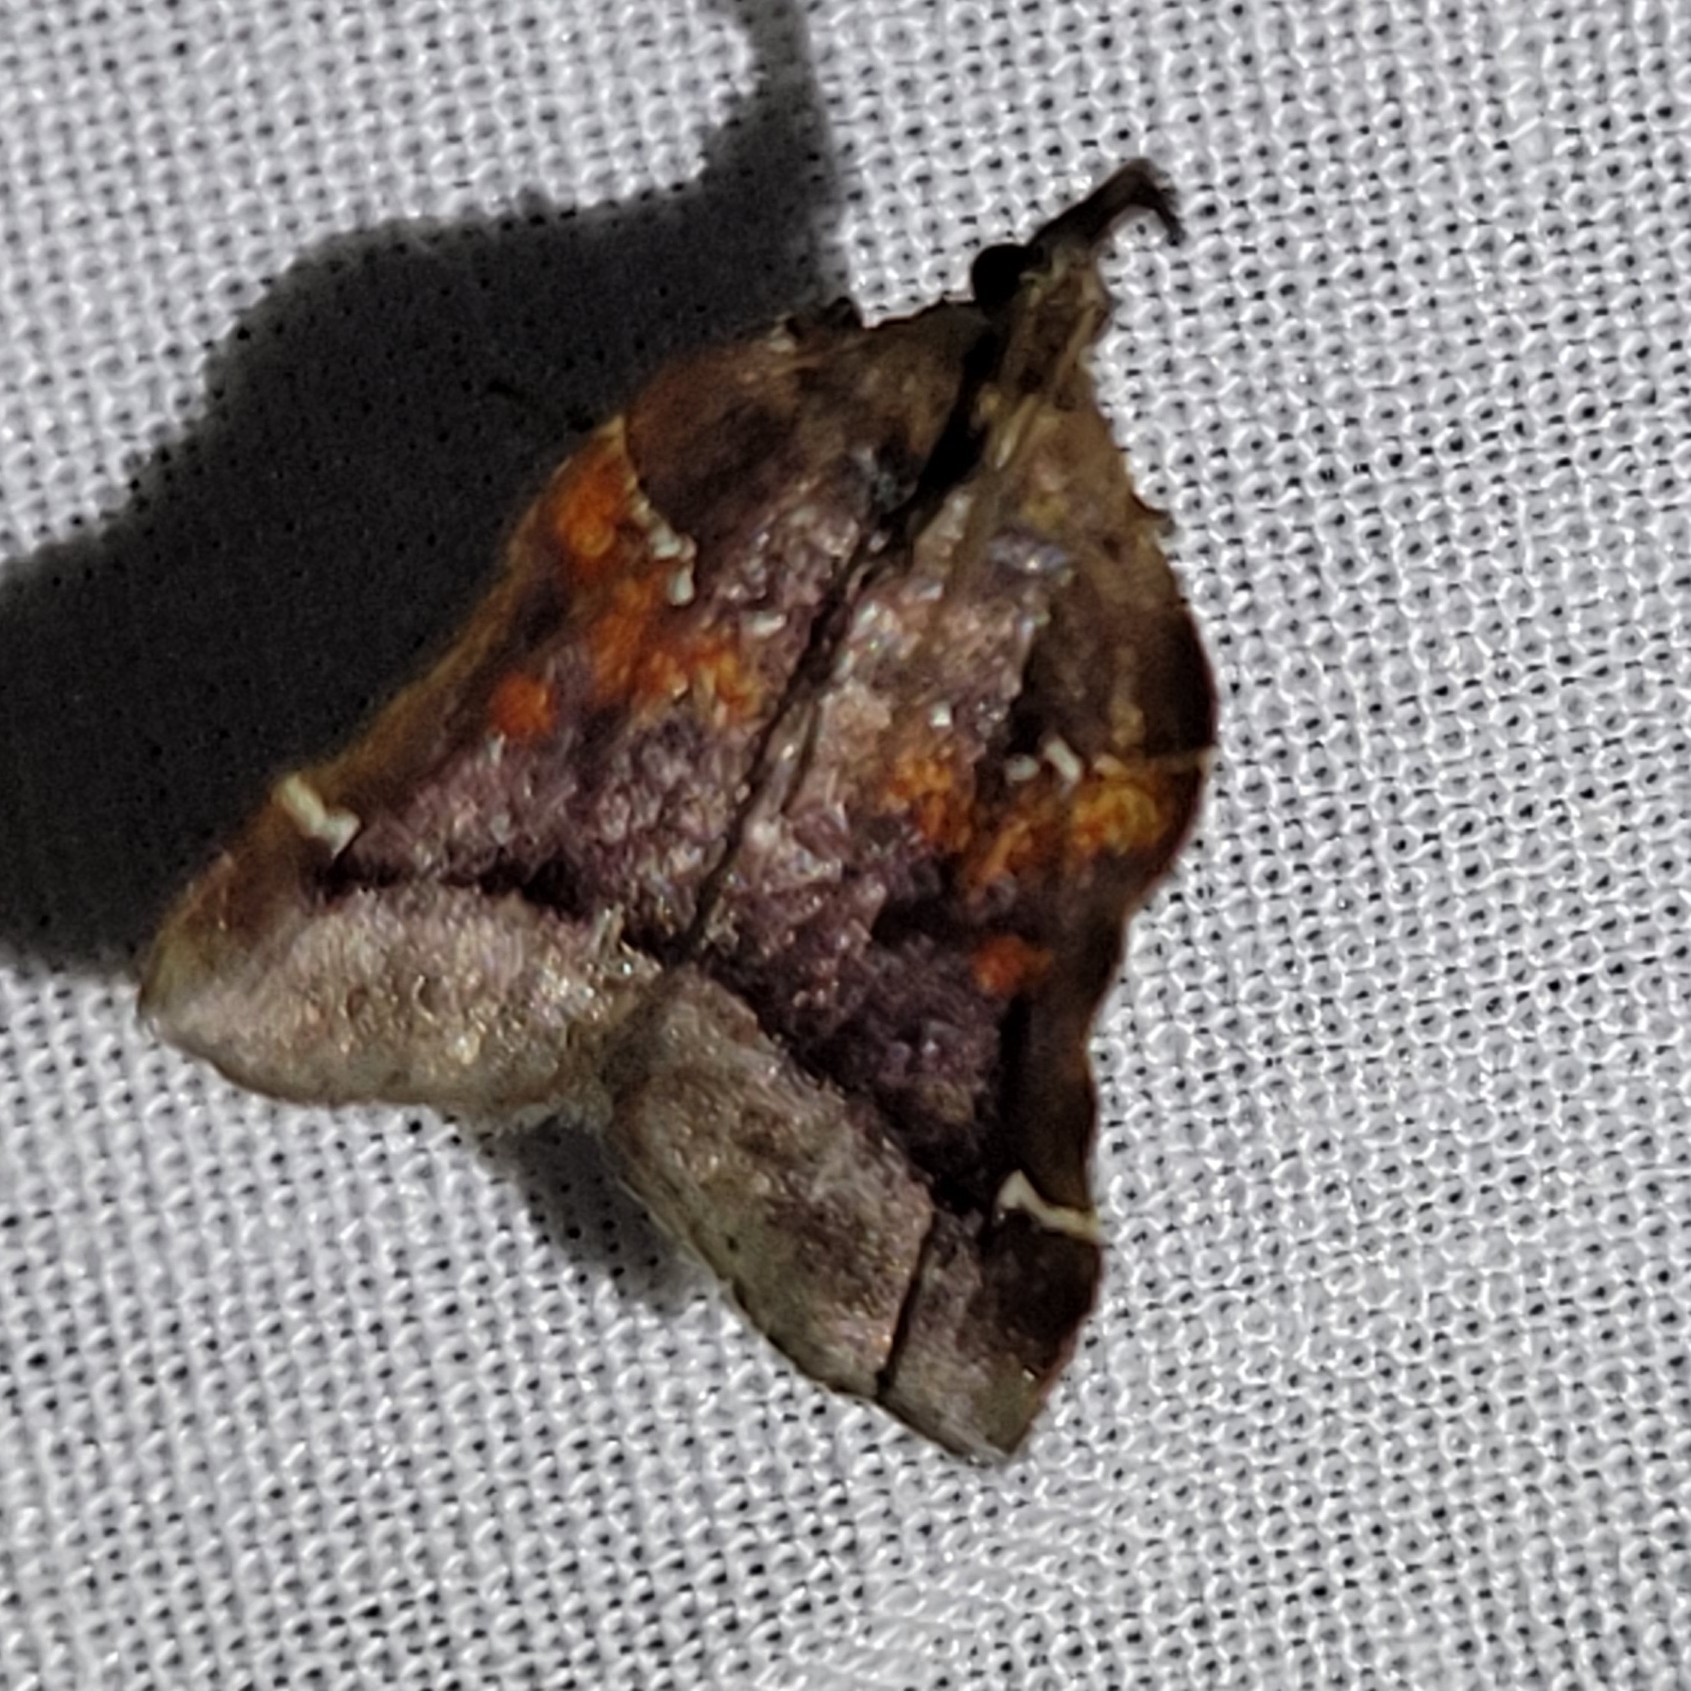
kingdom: Animalia
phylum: Arthropoda
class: Insecta
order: Lepidoptera
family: Pyralidae
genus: Clydonopteron
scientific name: Clydonopteron sacculana
